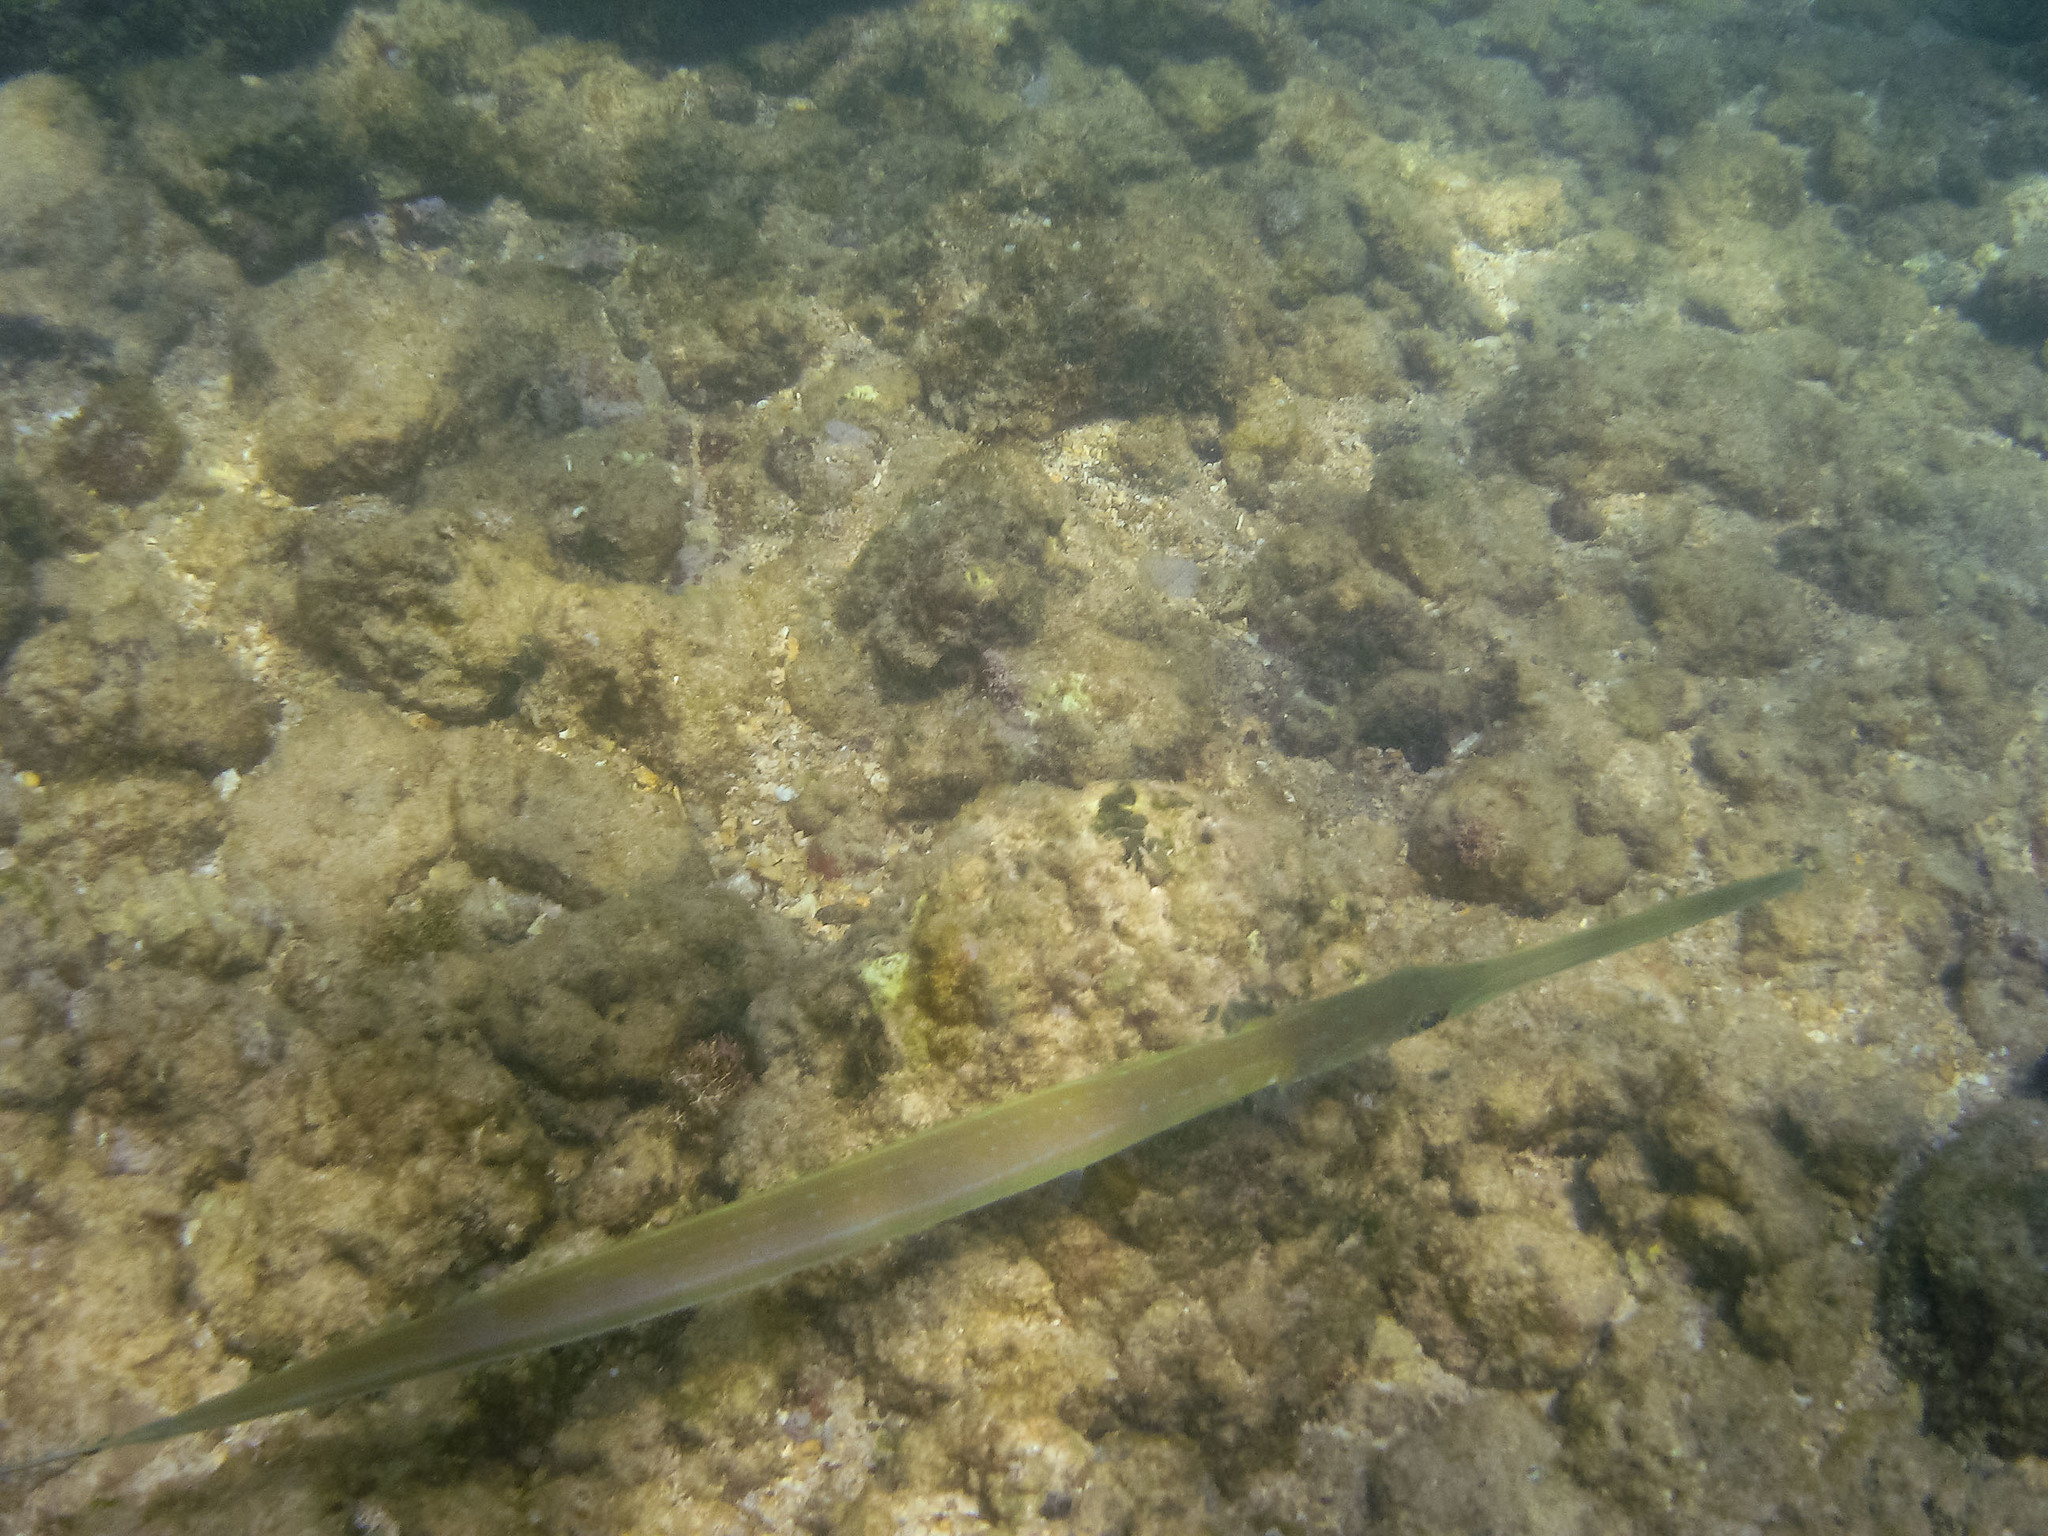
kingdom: Animalia
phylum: Chordata
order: Syngnathiformes
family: Fistulariidae
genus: Fistularia
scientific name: Fistularia commersonii
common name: Bluespotted cornetfish
